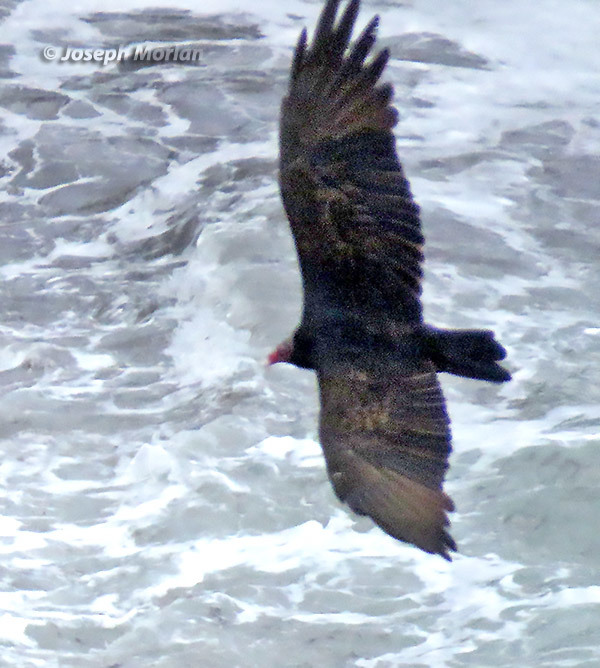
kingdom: Animalia
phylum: Chordata
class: Aves
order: Accipitriformes
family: Cathartidae
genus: Cathartes
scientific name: Cathartes aura
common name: Turkey vulture
